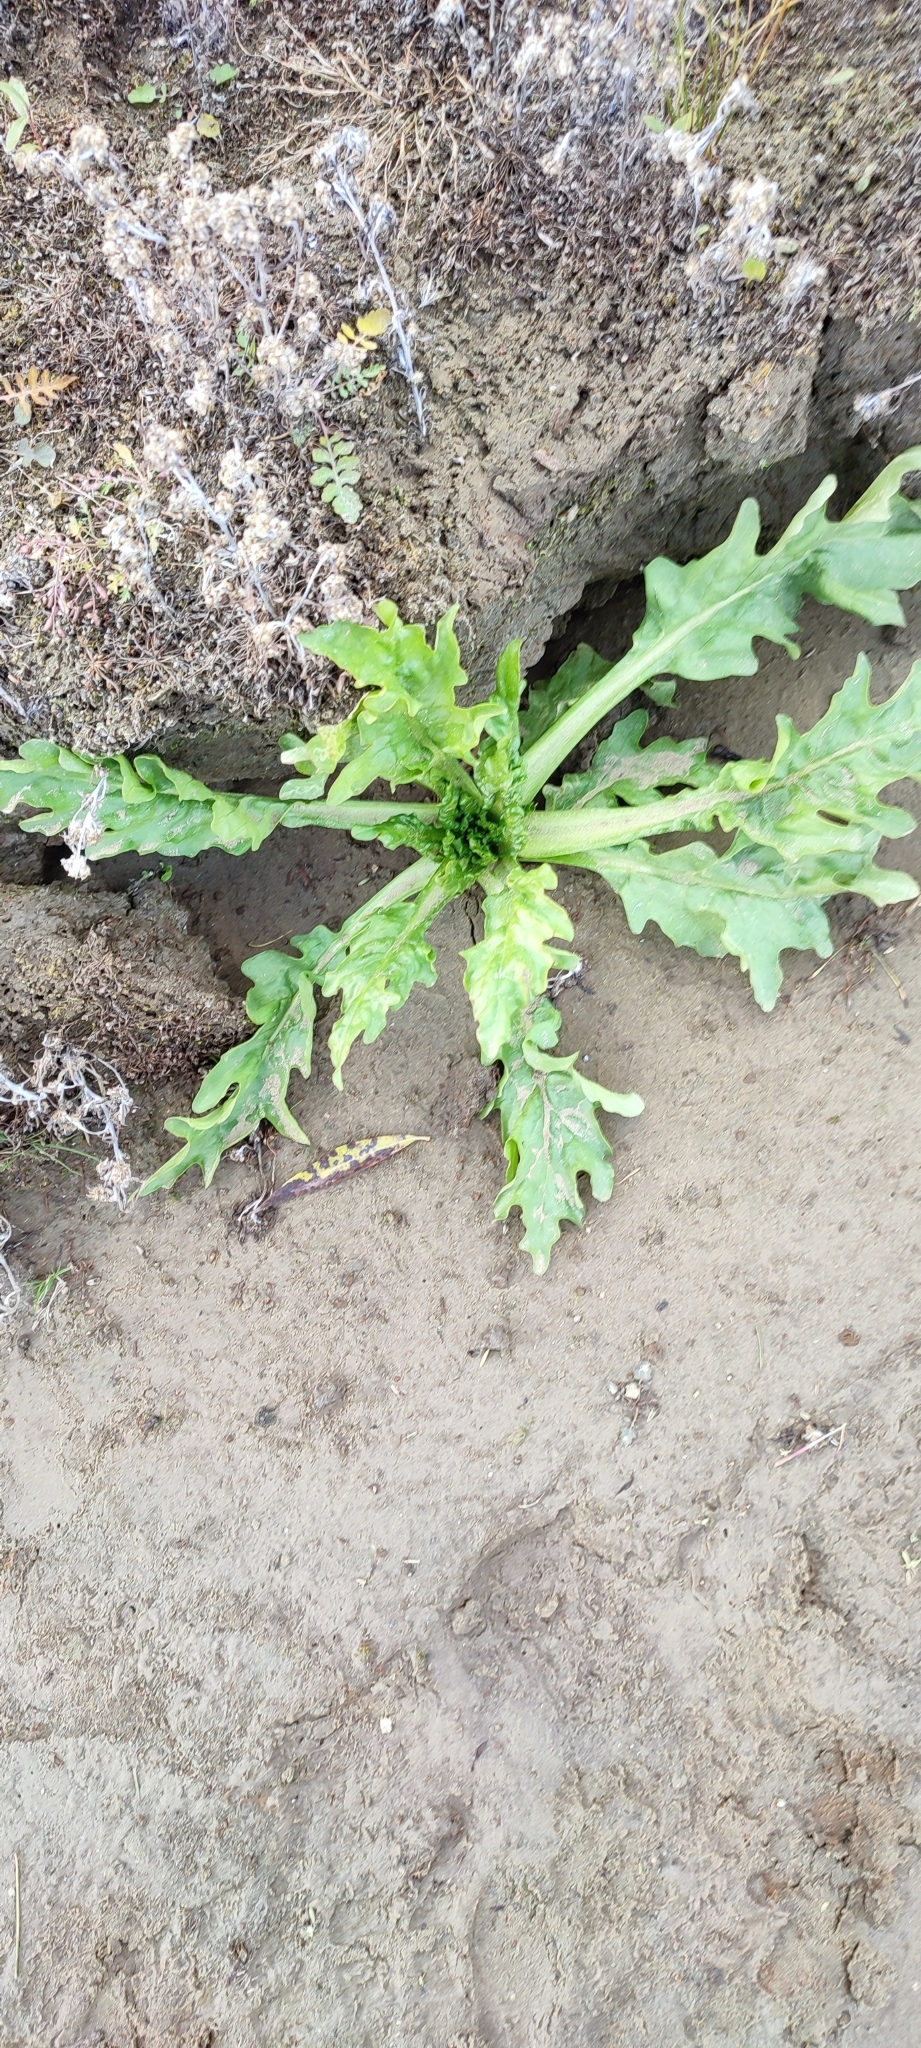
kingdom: Plantae
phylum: Tracheophyta
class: Magnoliopsida
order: Asterales
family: Asteraceae
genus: Tephroseris
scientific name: Tephroseris palustris
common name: Marsh fleawort
